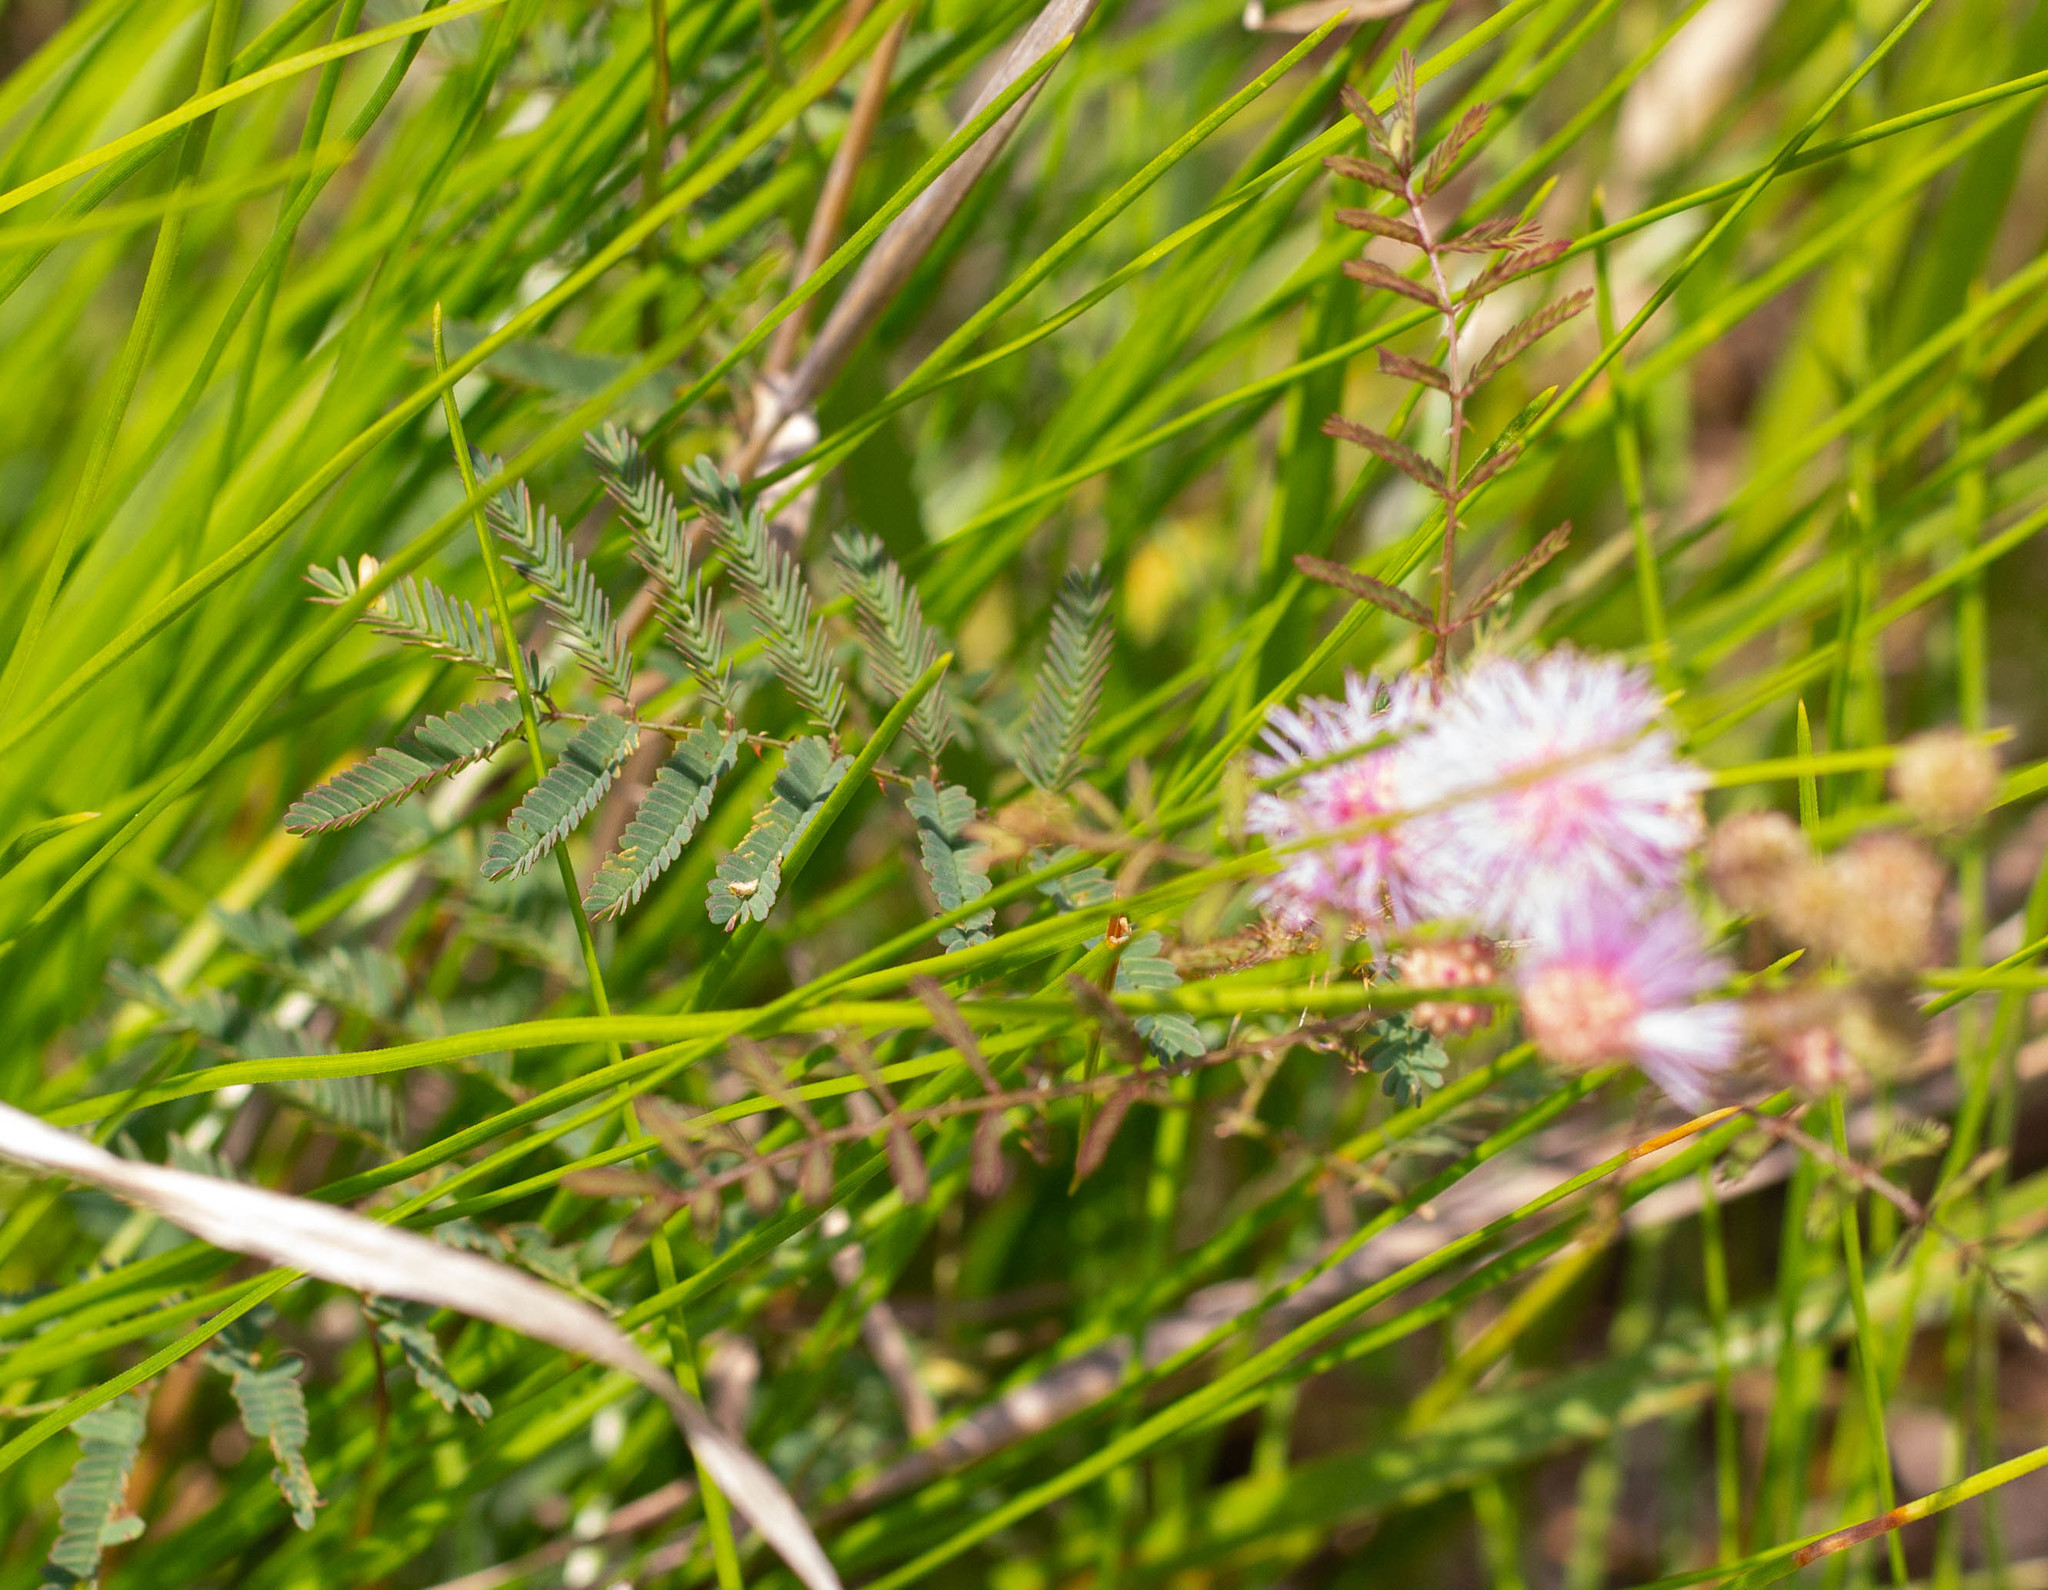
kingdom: Plantae
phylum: Tracheophyta
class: Magnoliopsida
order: Fabales
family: Fabaceae
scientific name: Fabaceae
